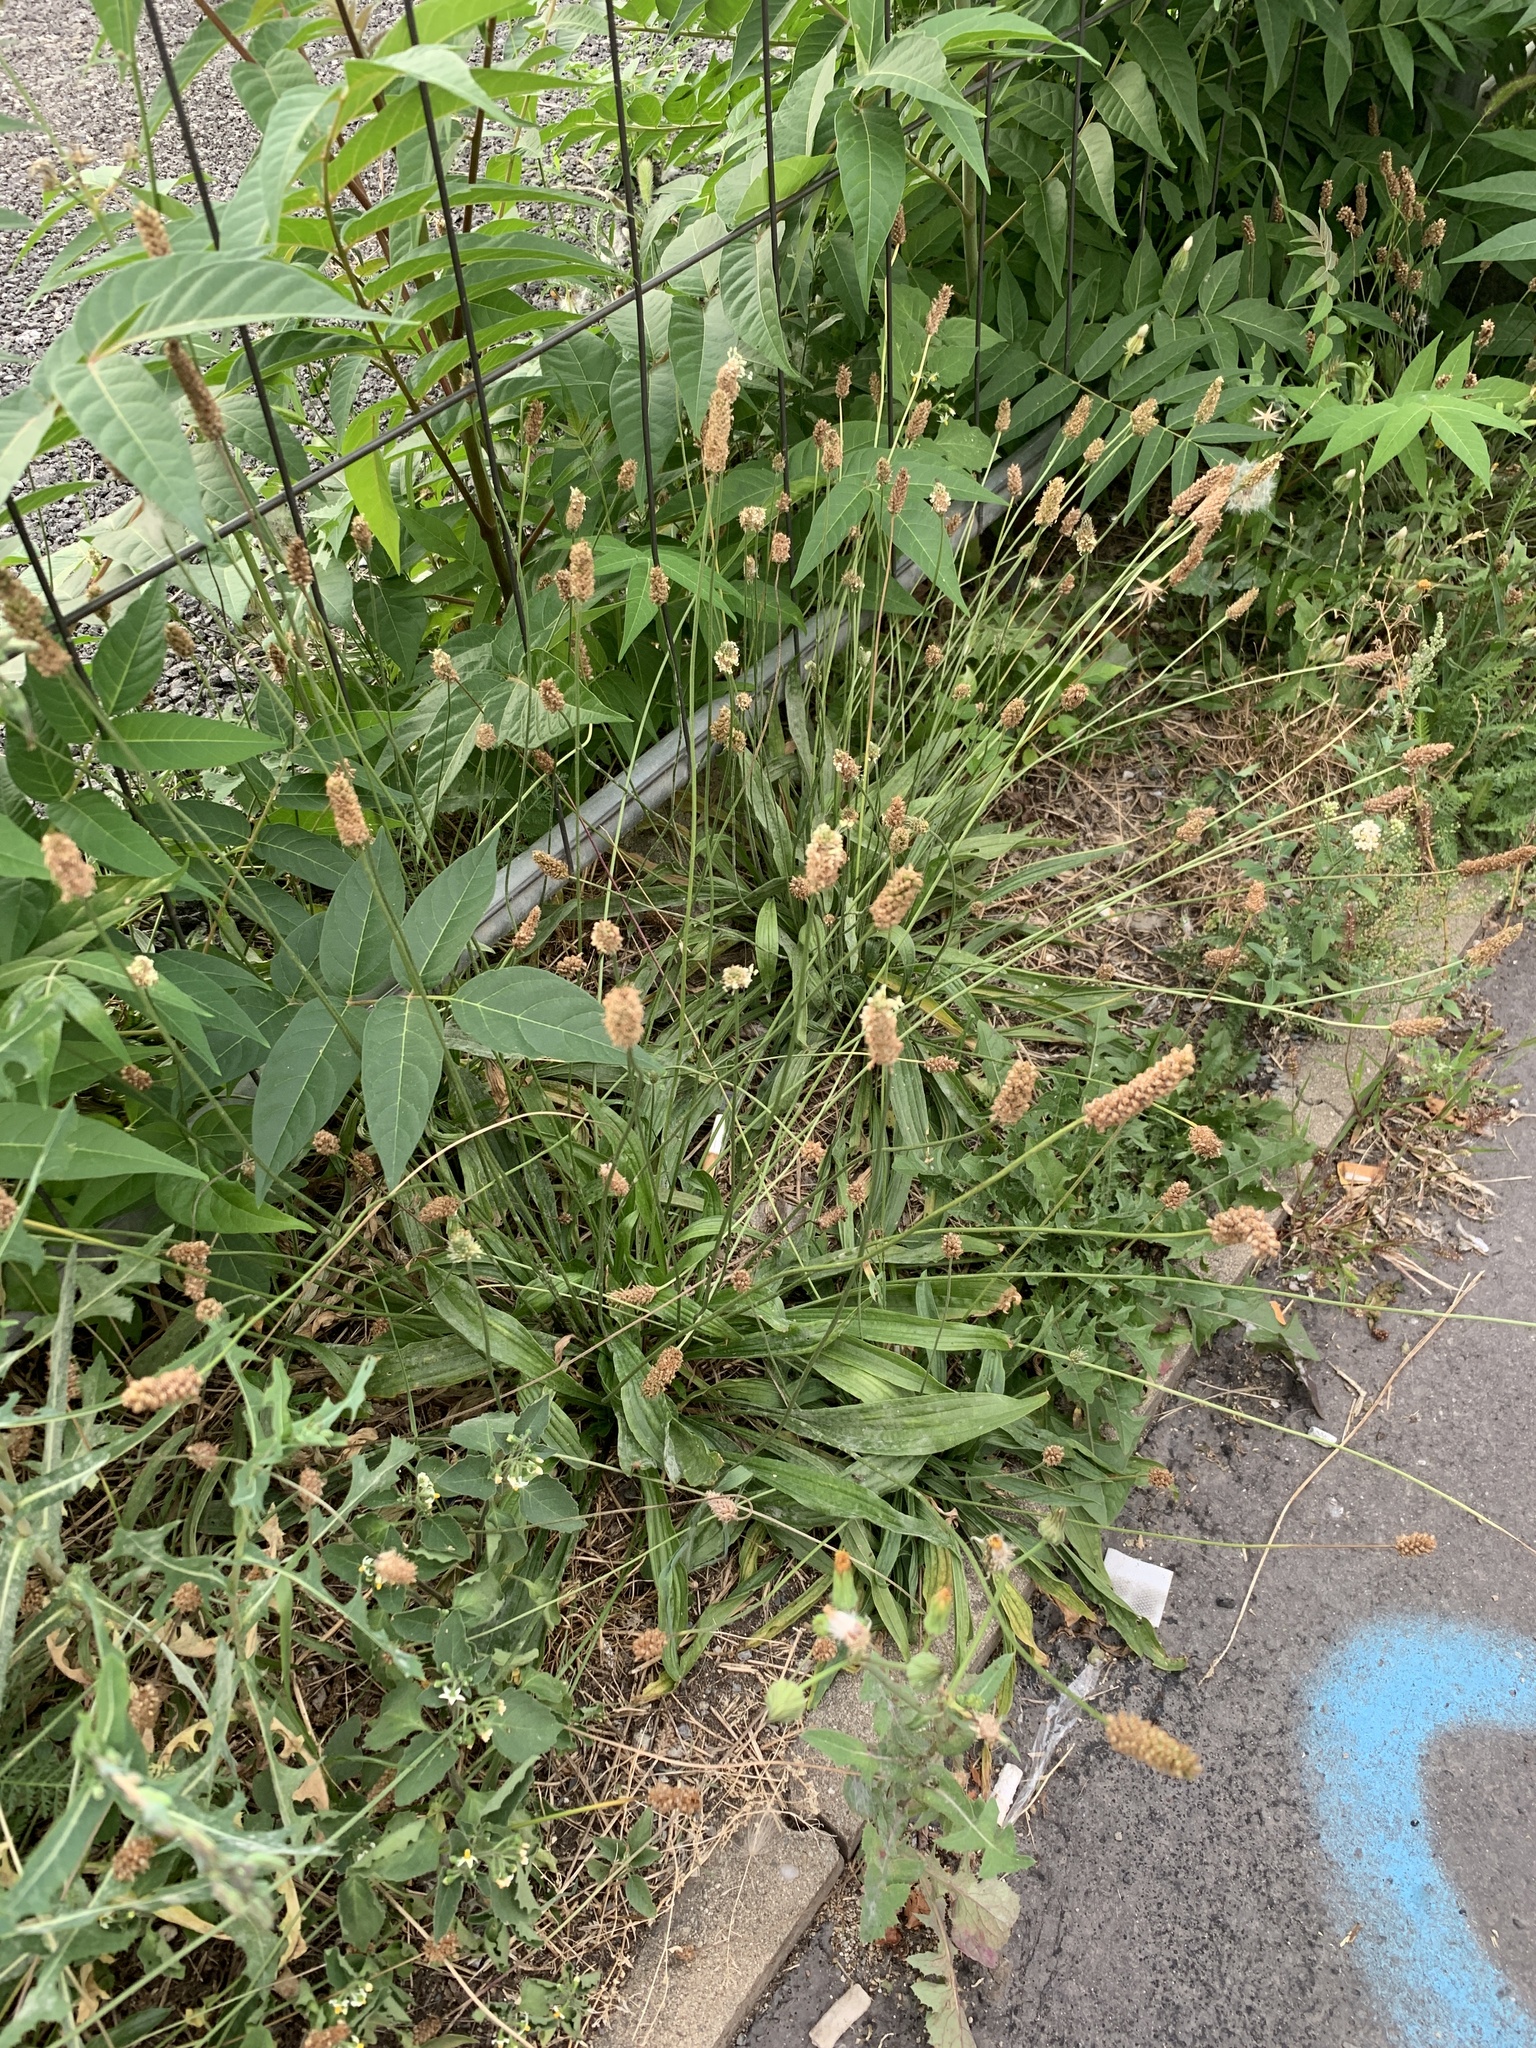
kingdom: Plantae
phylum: Tracheophyta
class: Magnoliopsida
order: Lamiales
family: Plantaginaceae
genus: Plantago
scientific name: Plantago lanceolata
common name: Ribwort plantain
